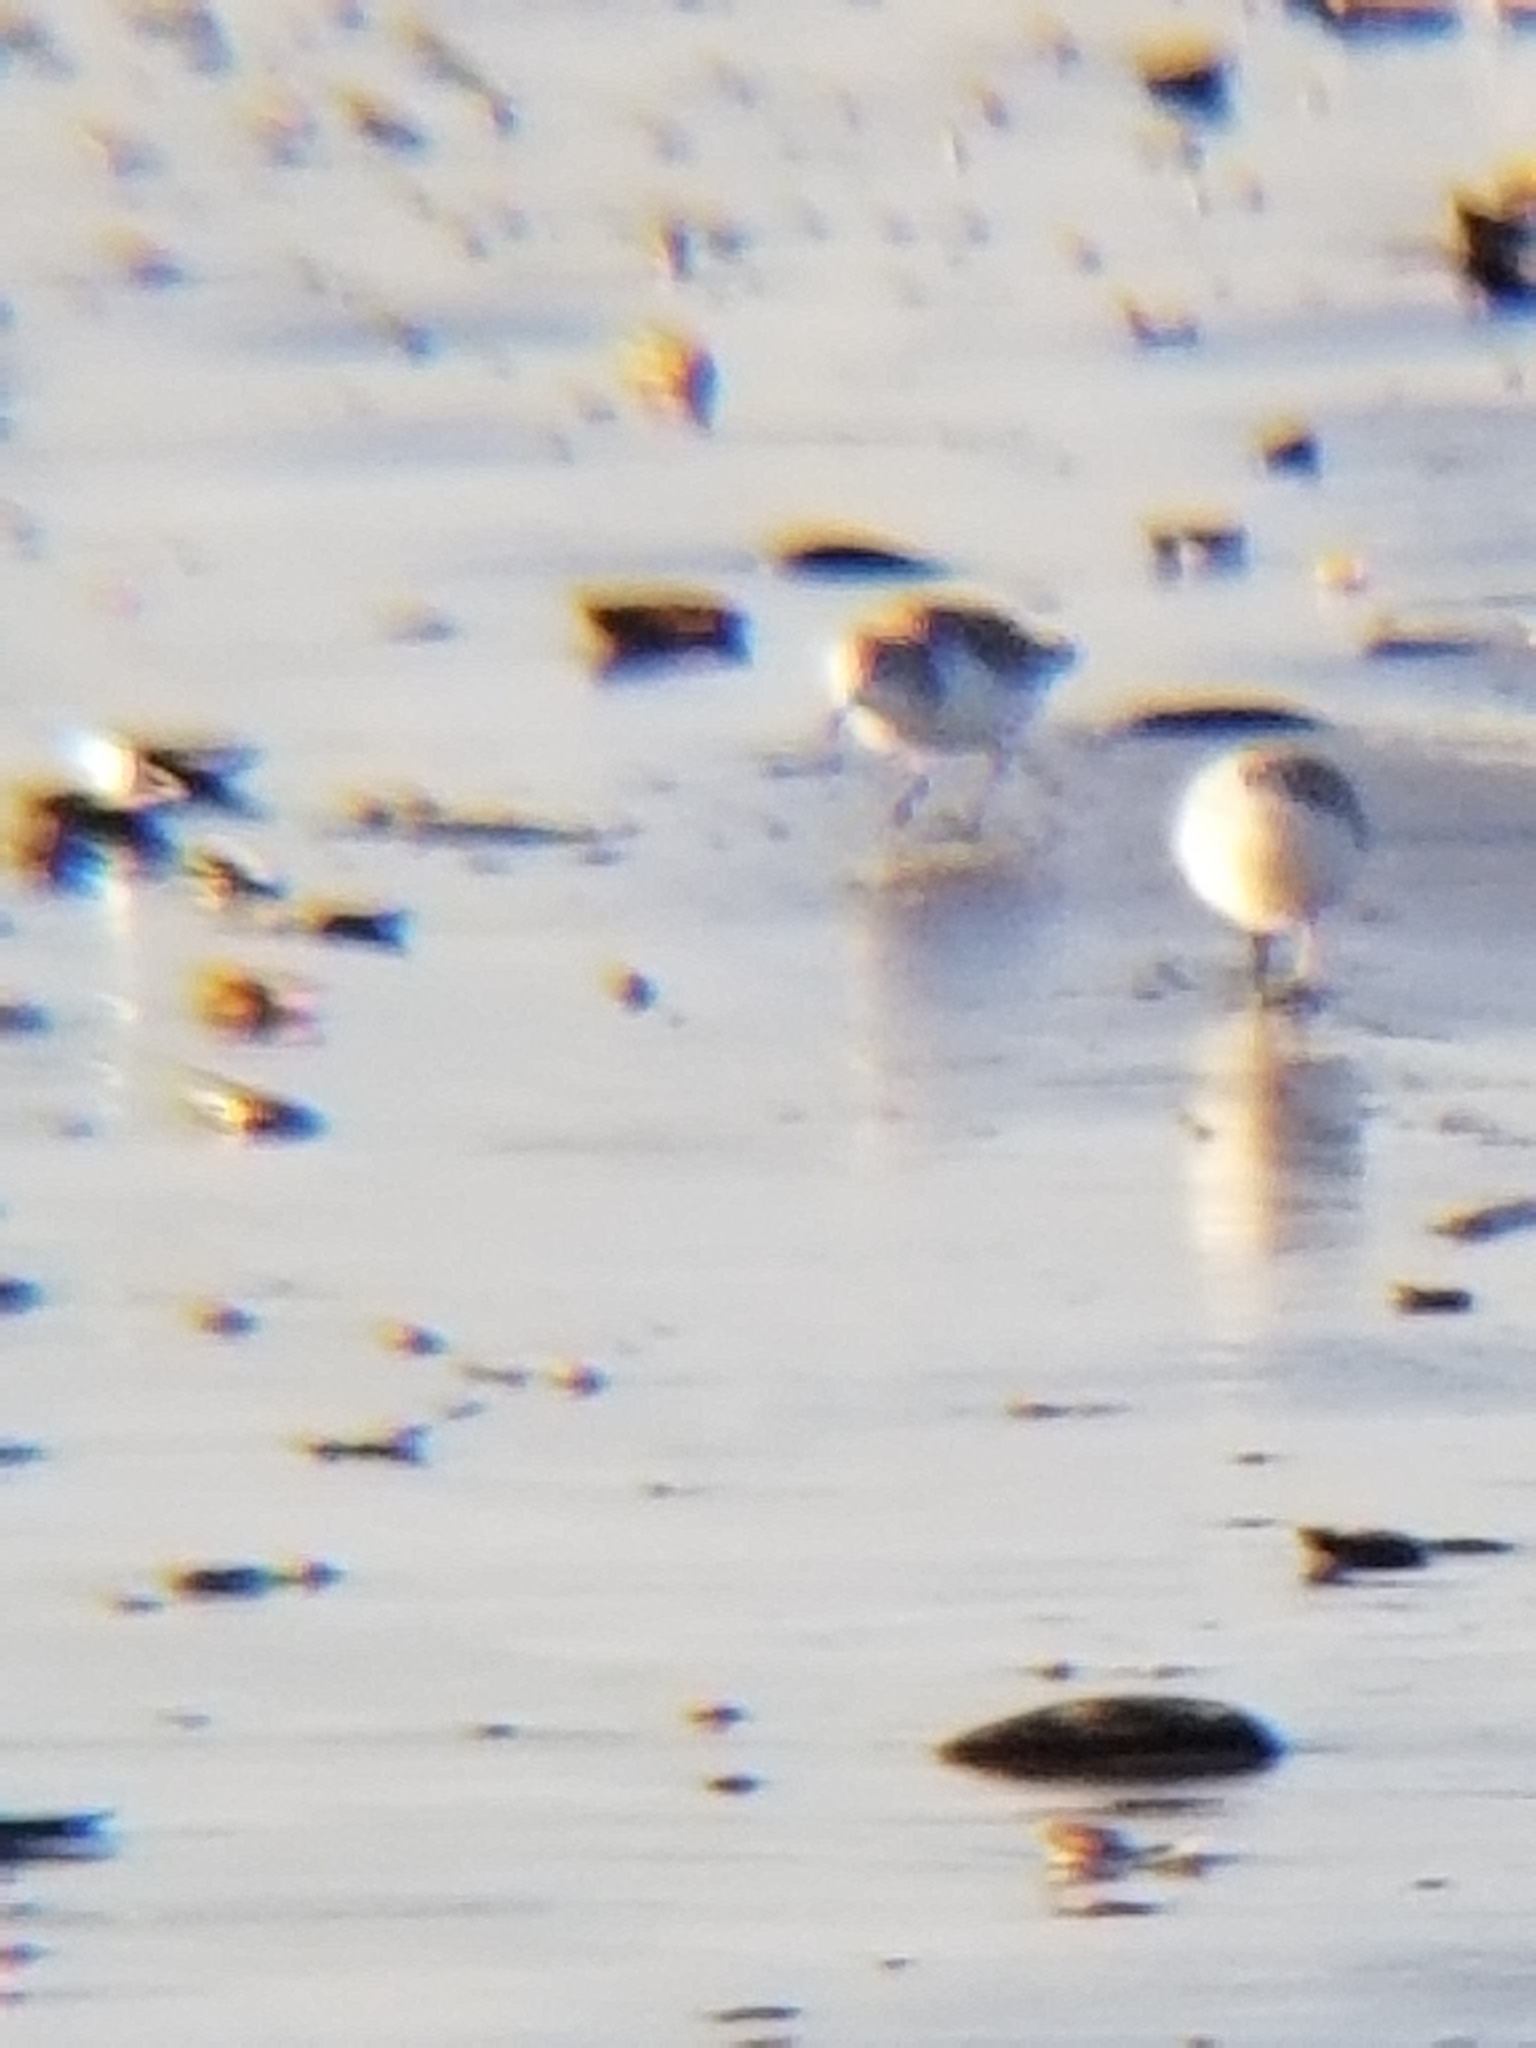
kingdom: Animalia
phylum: Chordata
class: Aves
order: Charadriiformes
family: Scolopacidae
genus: Calidris
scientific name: Calidris alba
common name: Sanderling
